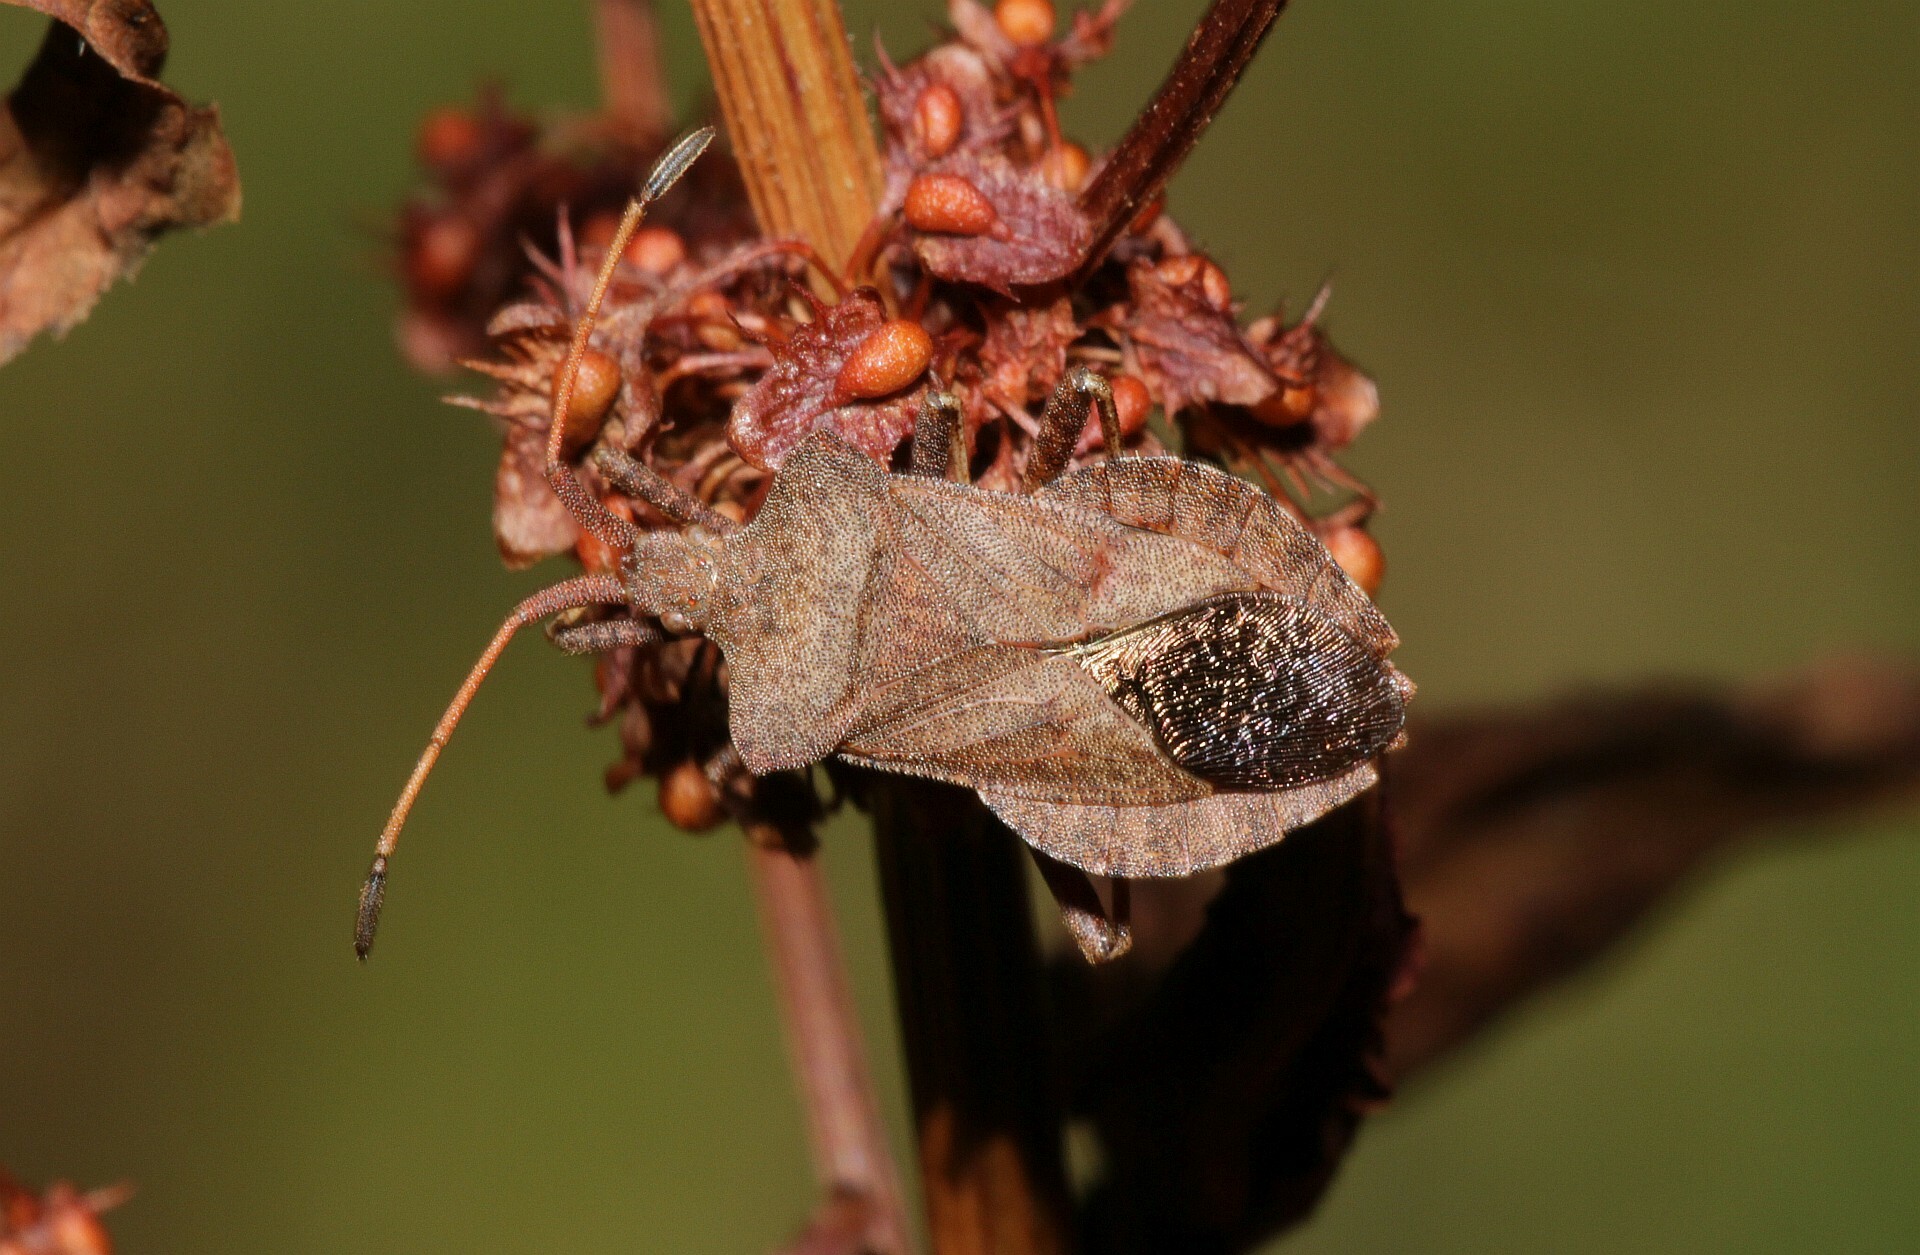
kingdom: Animalia
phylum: Arthropoda
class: Insecta
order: Hemiptera
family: Coreidae
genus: Coreus
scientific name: Coreus marginatus
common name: Dock bug
